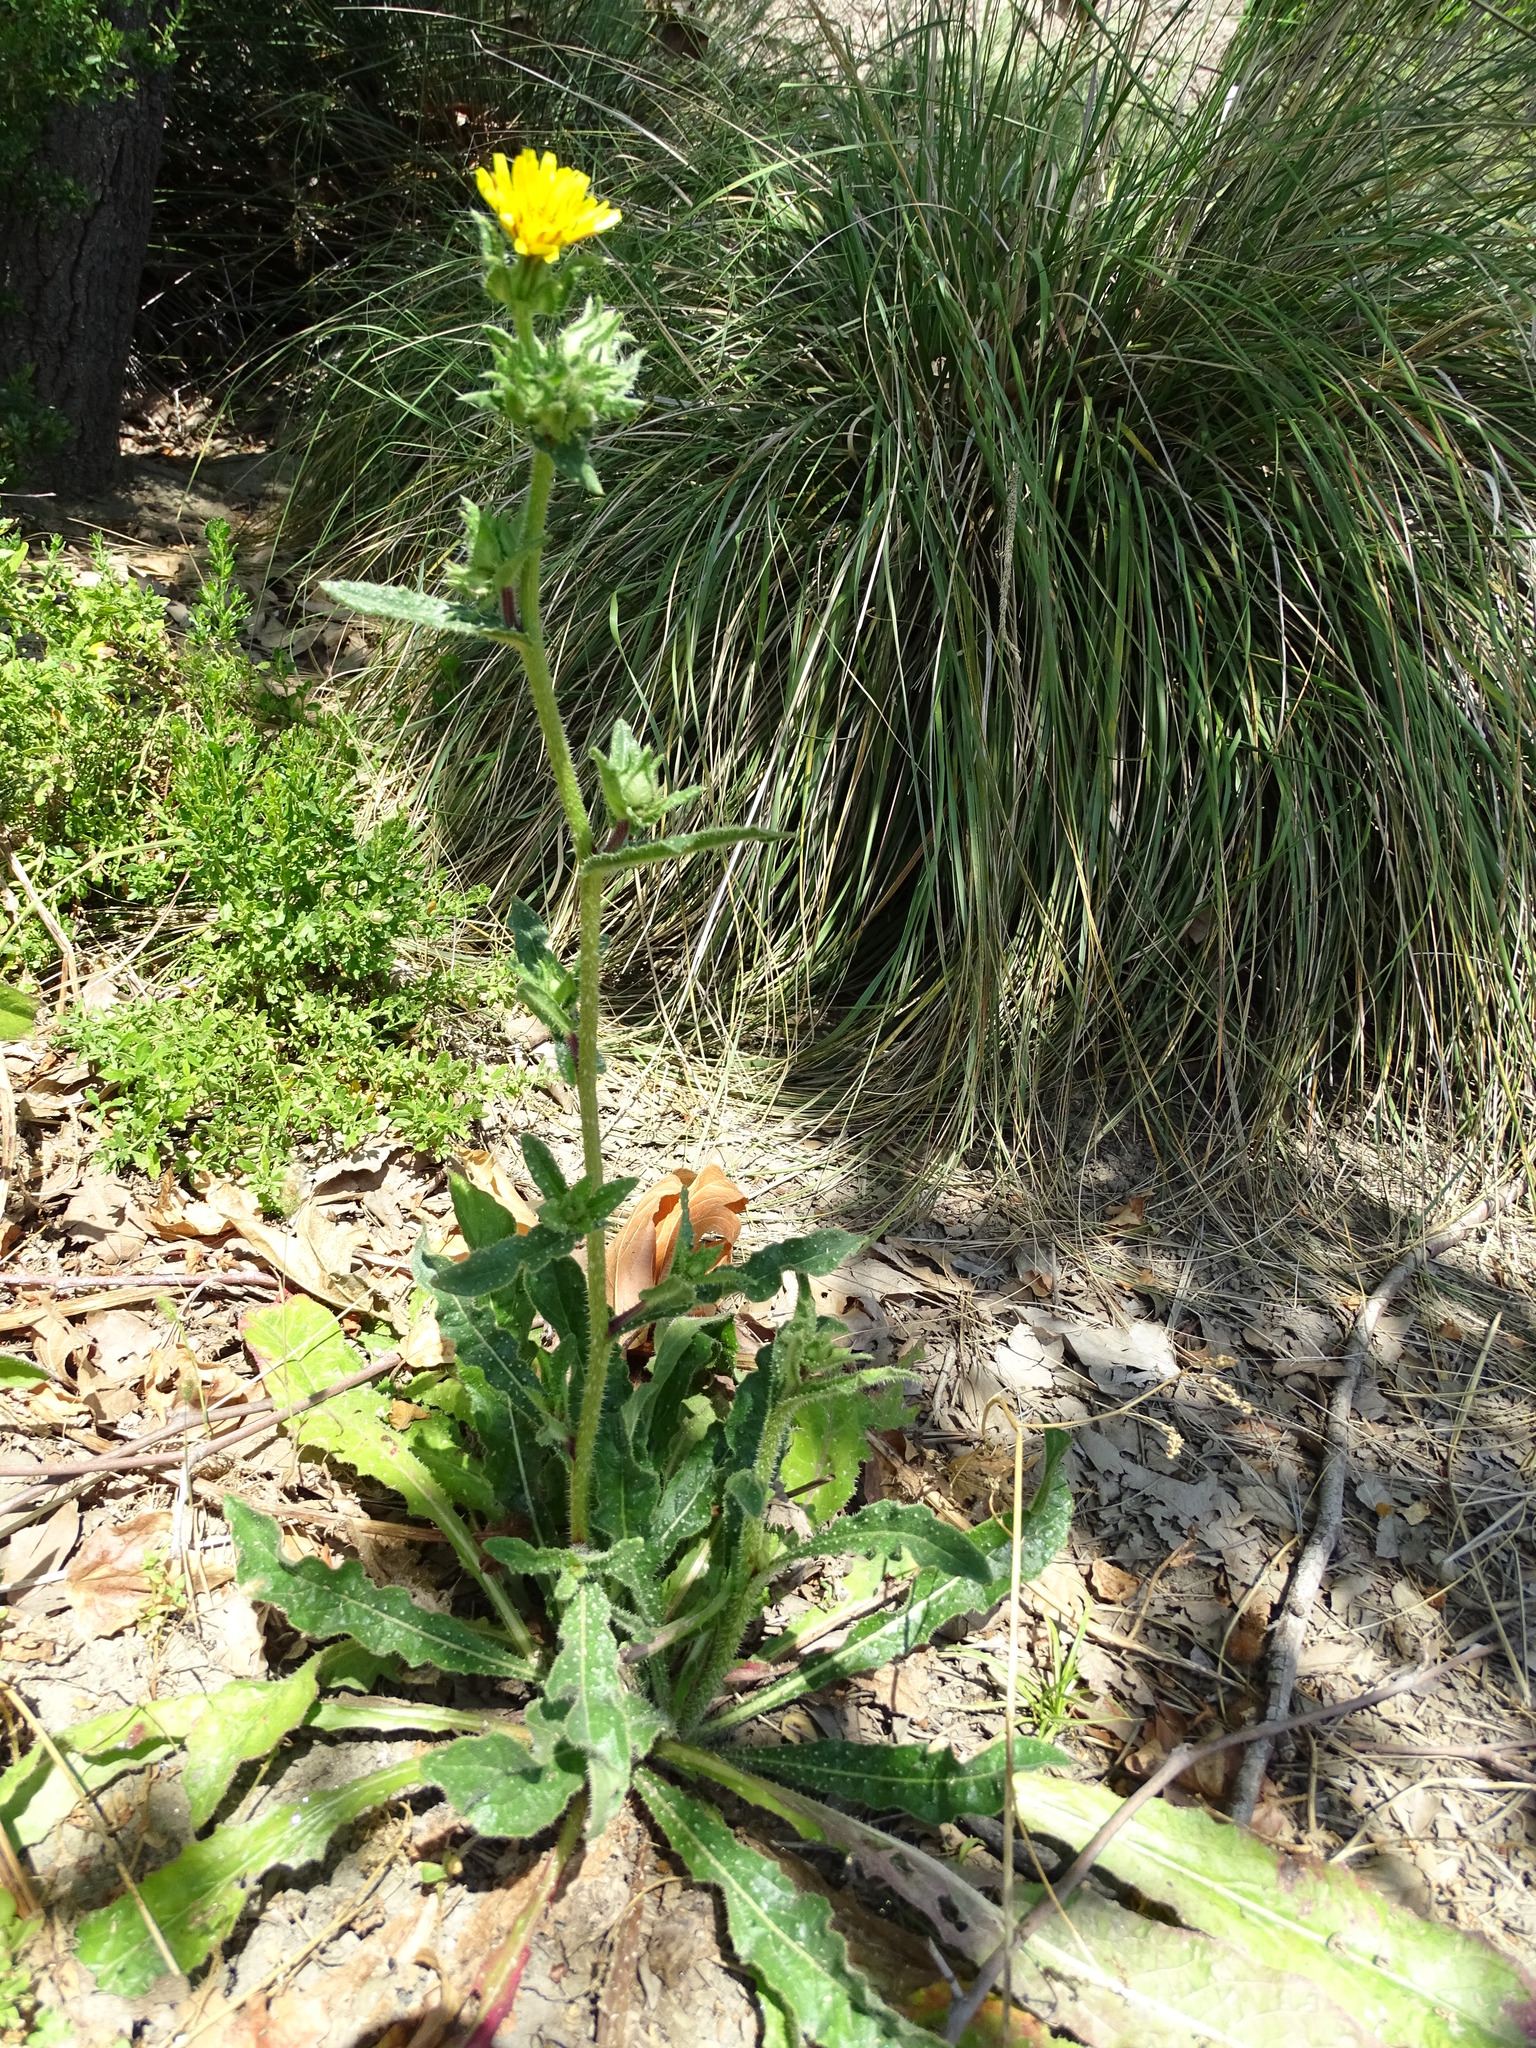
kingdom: Plantae
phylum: Tracheophyta
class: Magnoliopsida
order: Asterales
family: Asteraceae
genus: Helminthotheca
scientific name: Helminthotheca echioides
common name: Ox-tongue
